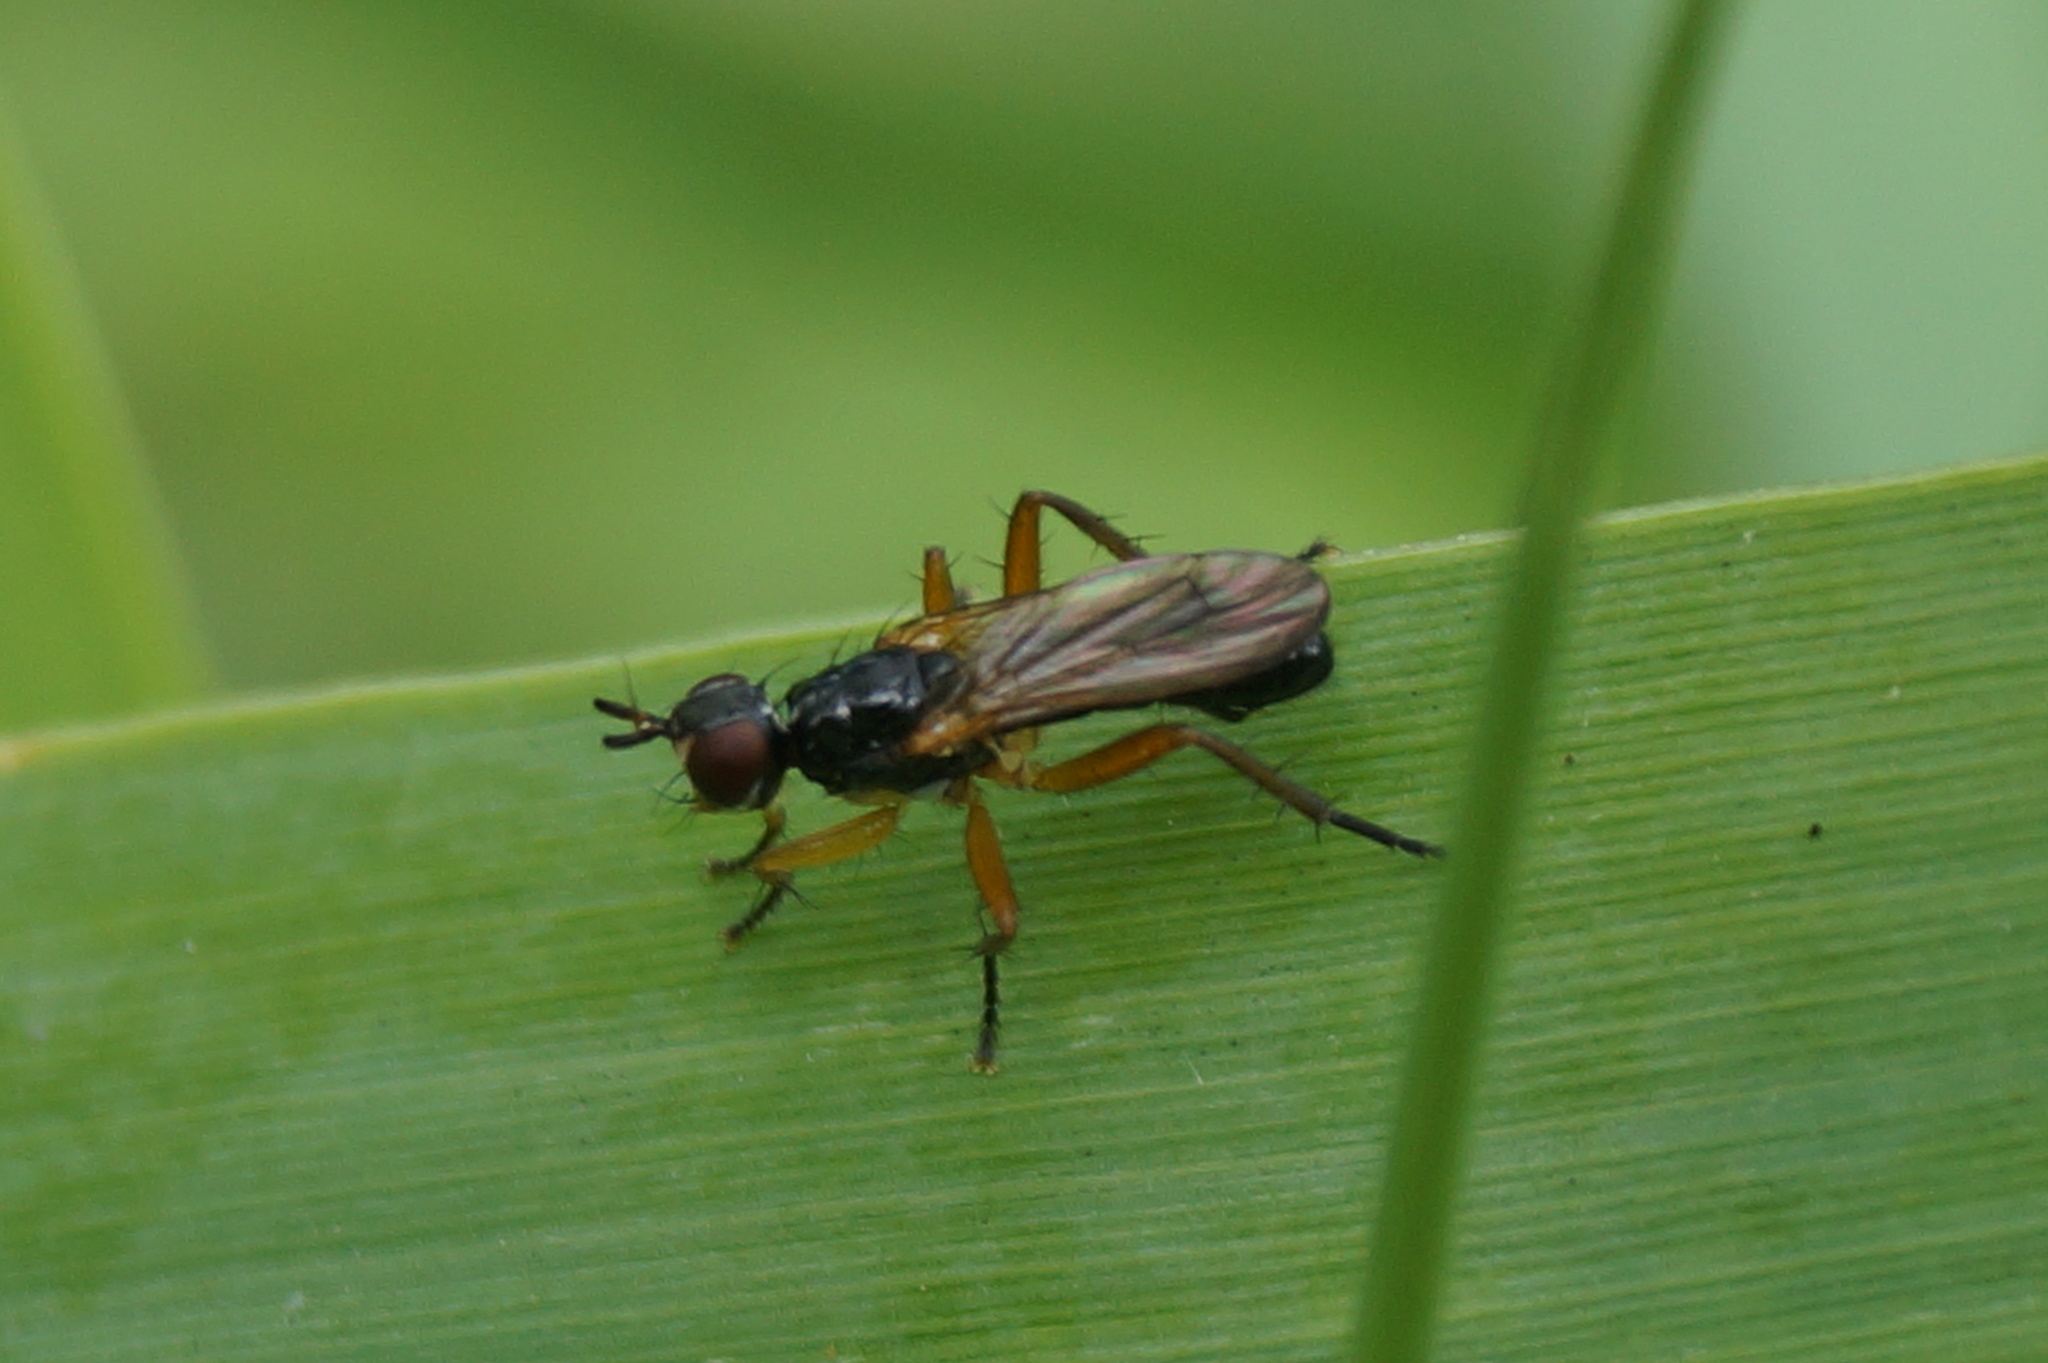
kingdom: Animalia
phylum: Arthropoda
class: Insecta
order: Diptera
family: Scathophagidae
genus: Cordilura
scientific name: Cordilura albilabris
